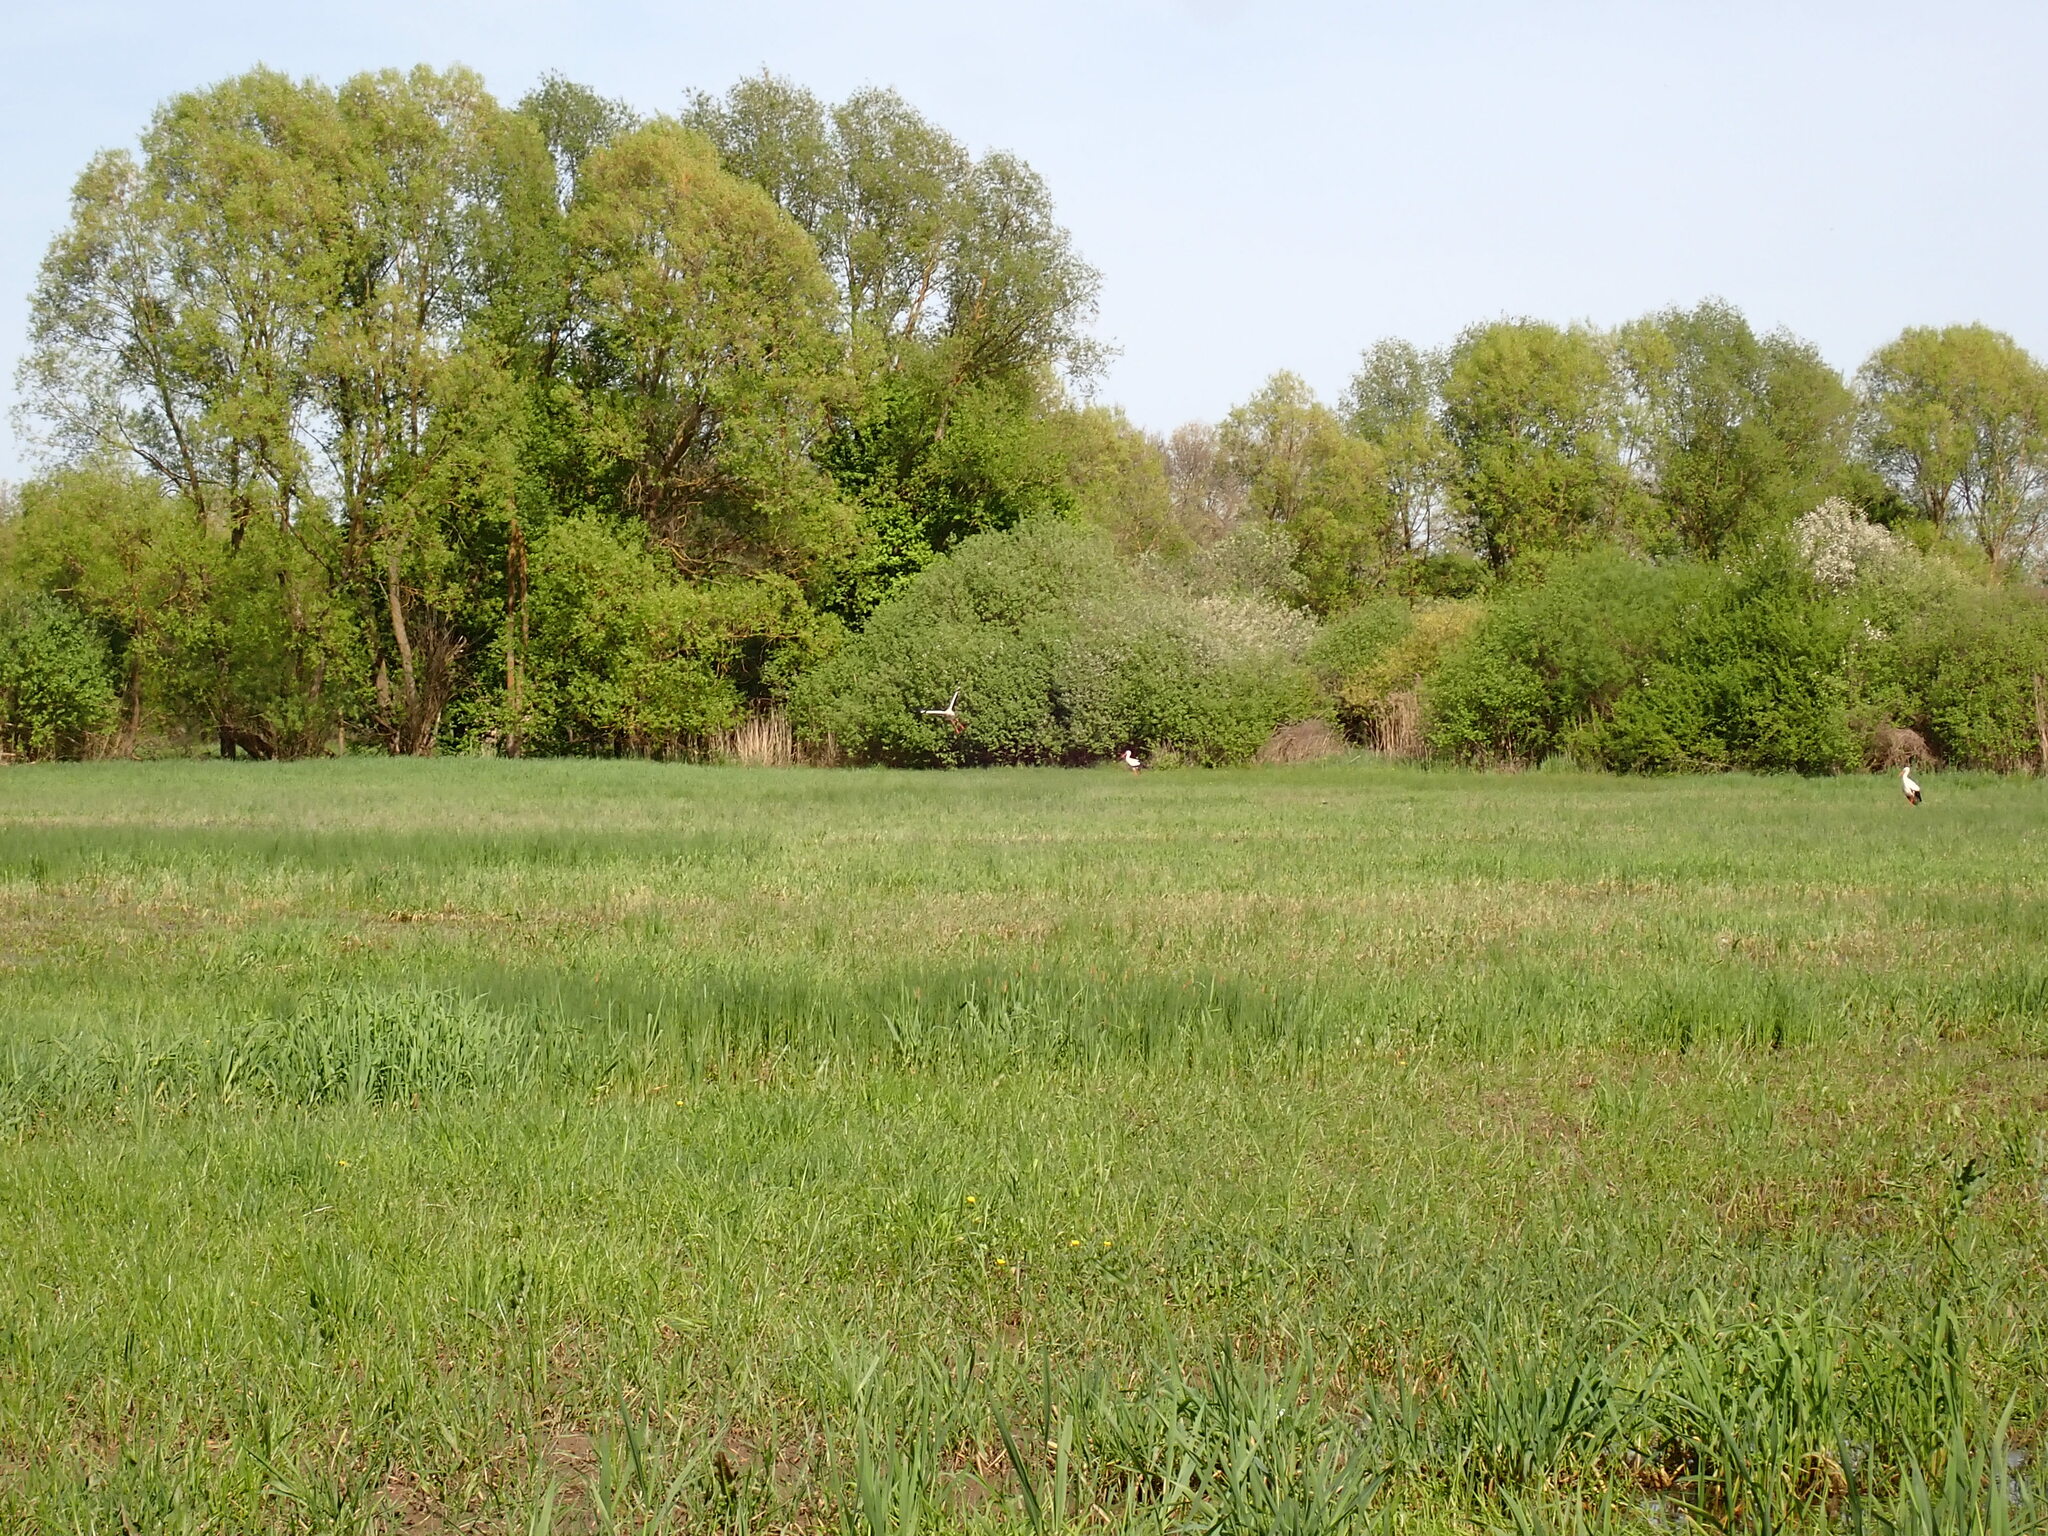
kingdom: Animalia
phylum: Chordata
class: Aves
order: Ciconiiformes
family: Ciconiidae
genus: Ciconia
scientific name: Ciconia ciconia
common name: White stork
